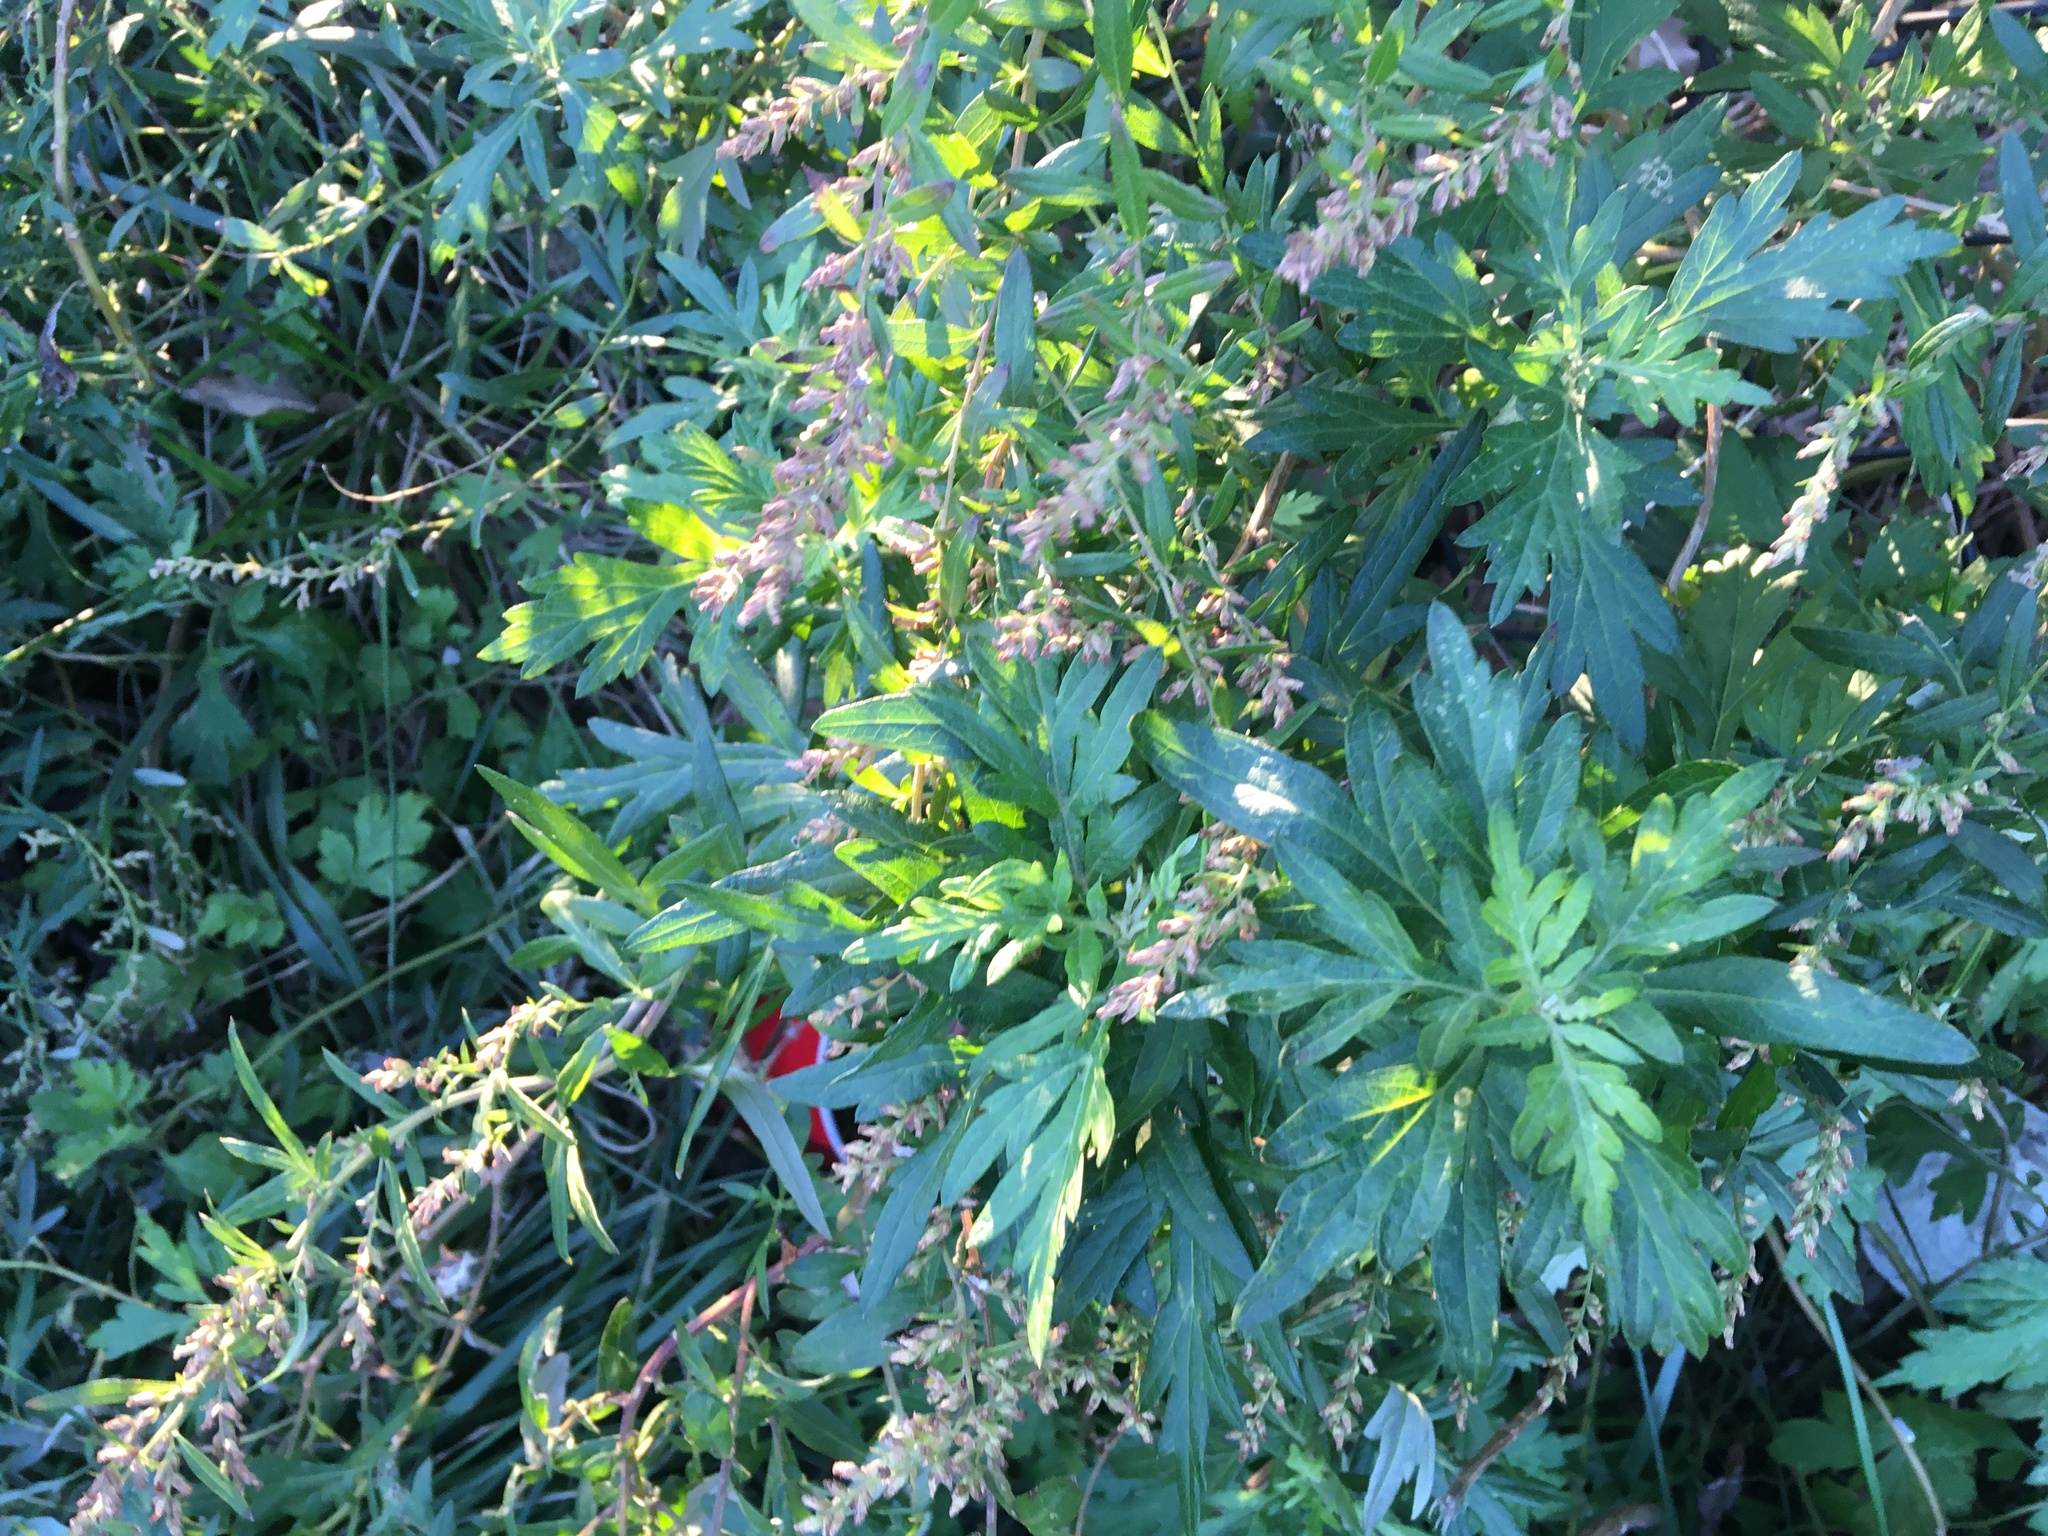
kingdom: Plantae
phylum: Tracheophyta
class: Magnoliopsida
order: Asterales
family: Asteraceae
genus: Artemisia
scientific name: Artemisia vulgaris
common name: Mugwort
